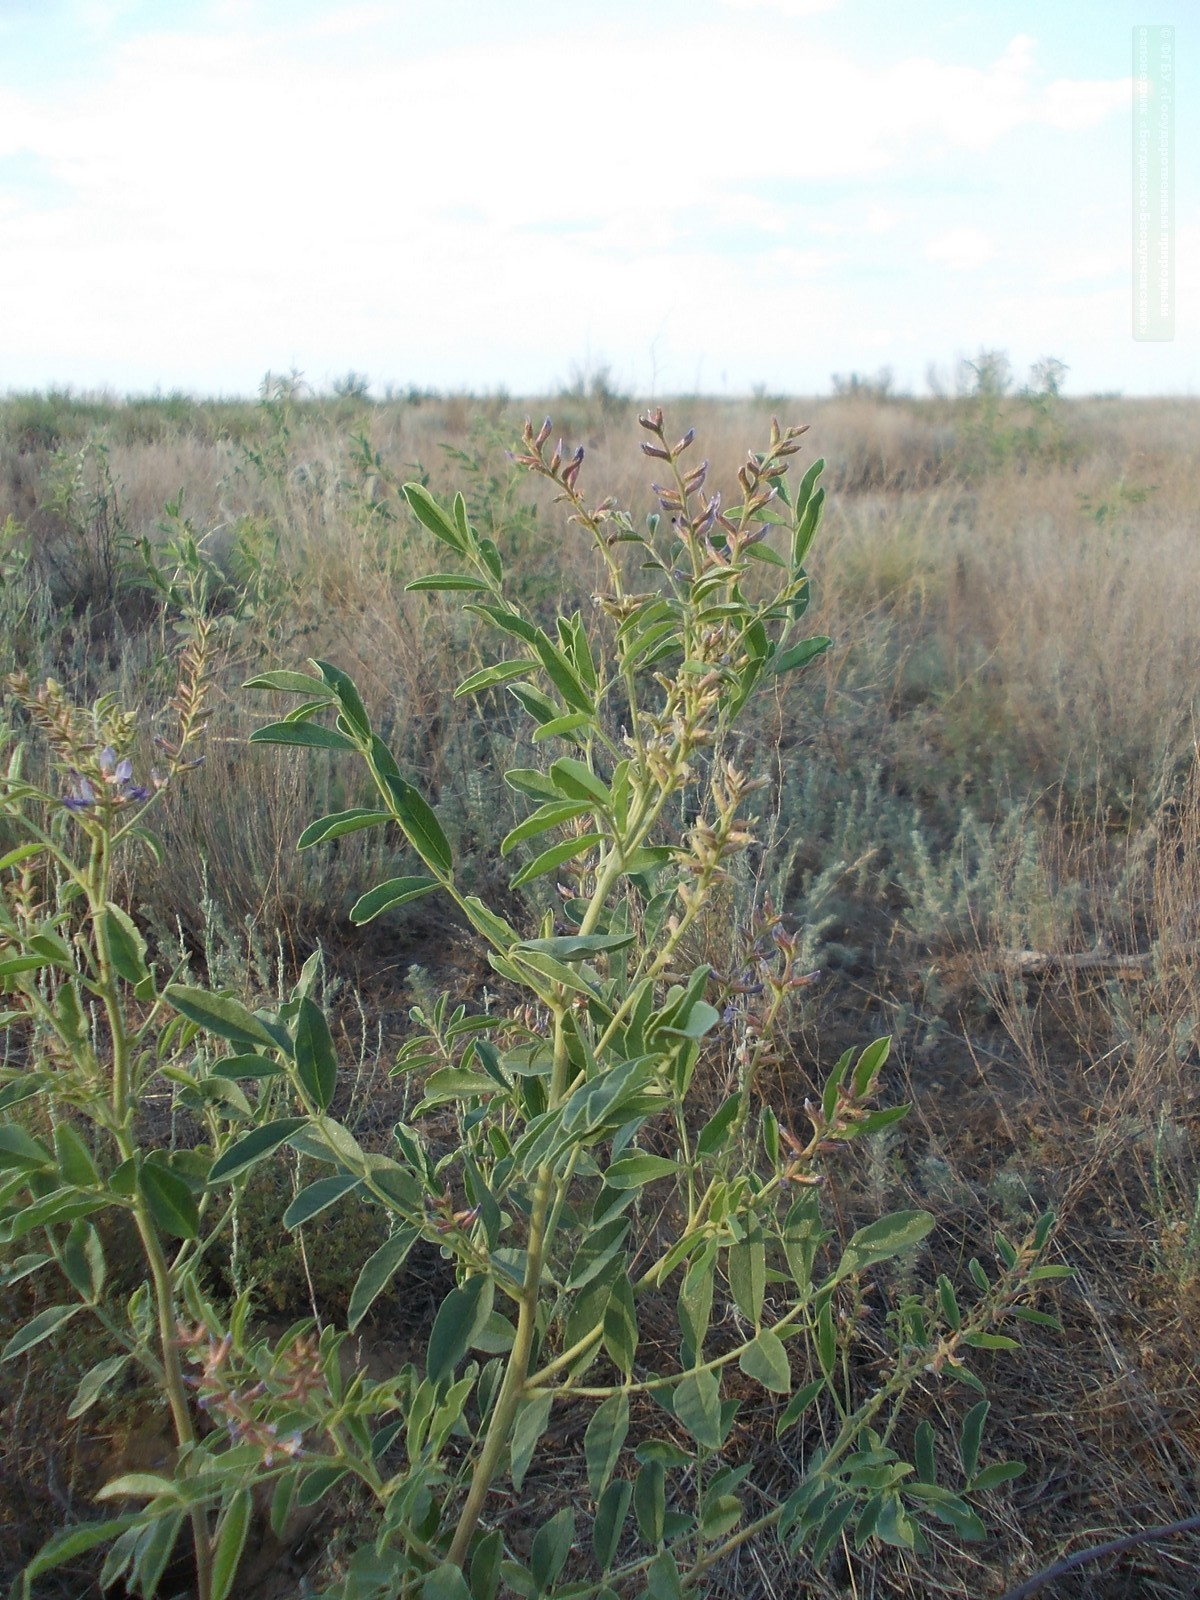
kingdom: Plantae
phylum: Tracheophyta
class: Magnoliopsida
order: Fabales
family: Fabaceae
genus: Glycyrrhiza
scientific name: Glycyrrhiza glabra
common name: Liquorice
